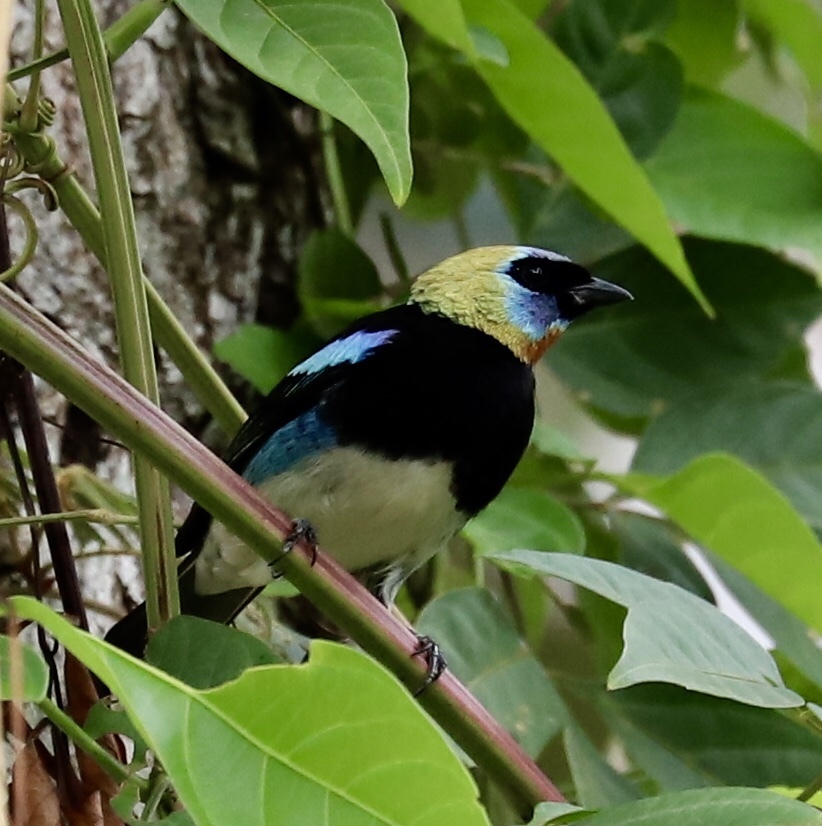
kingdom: Animalia
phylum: Chordata
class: Aves
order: Passeriformes
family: Thraupidae
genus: Stilpnia
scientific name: Stilpnia larvata
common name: Golden-hooded tanager
